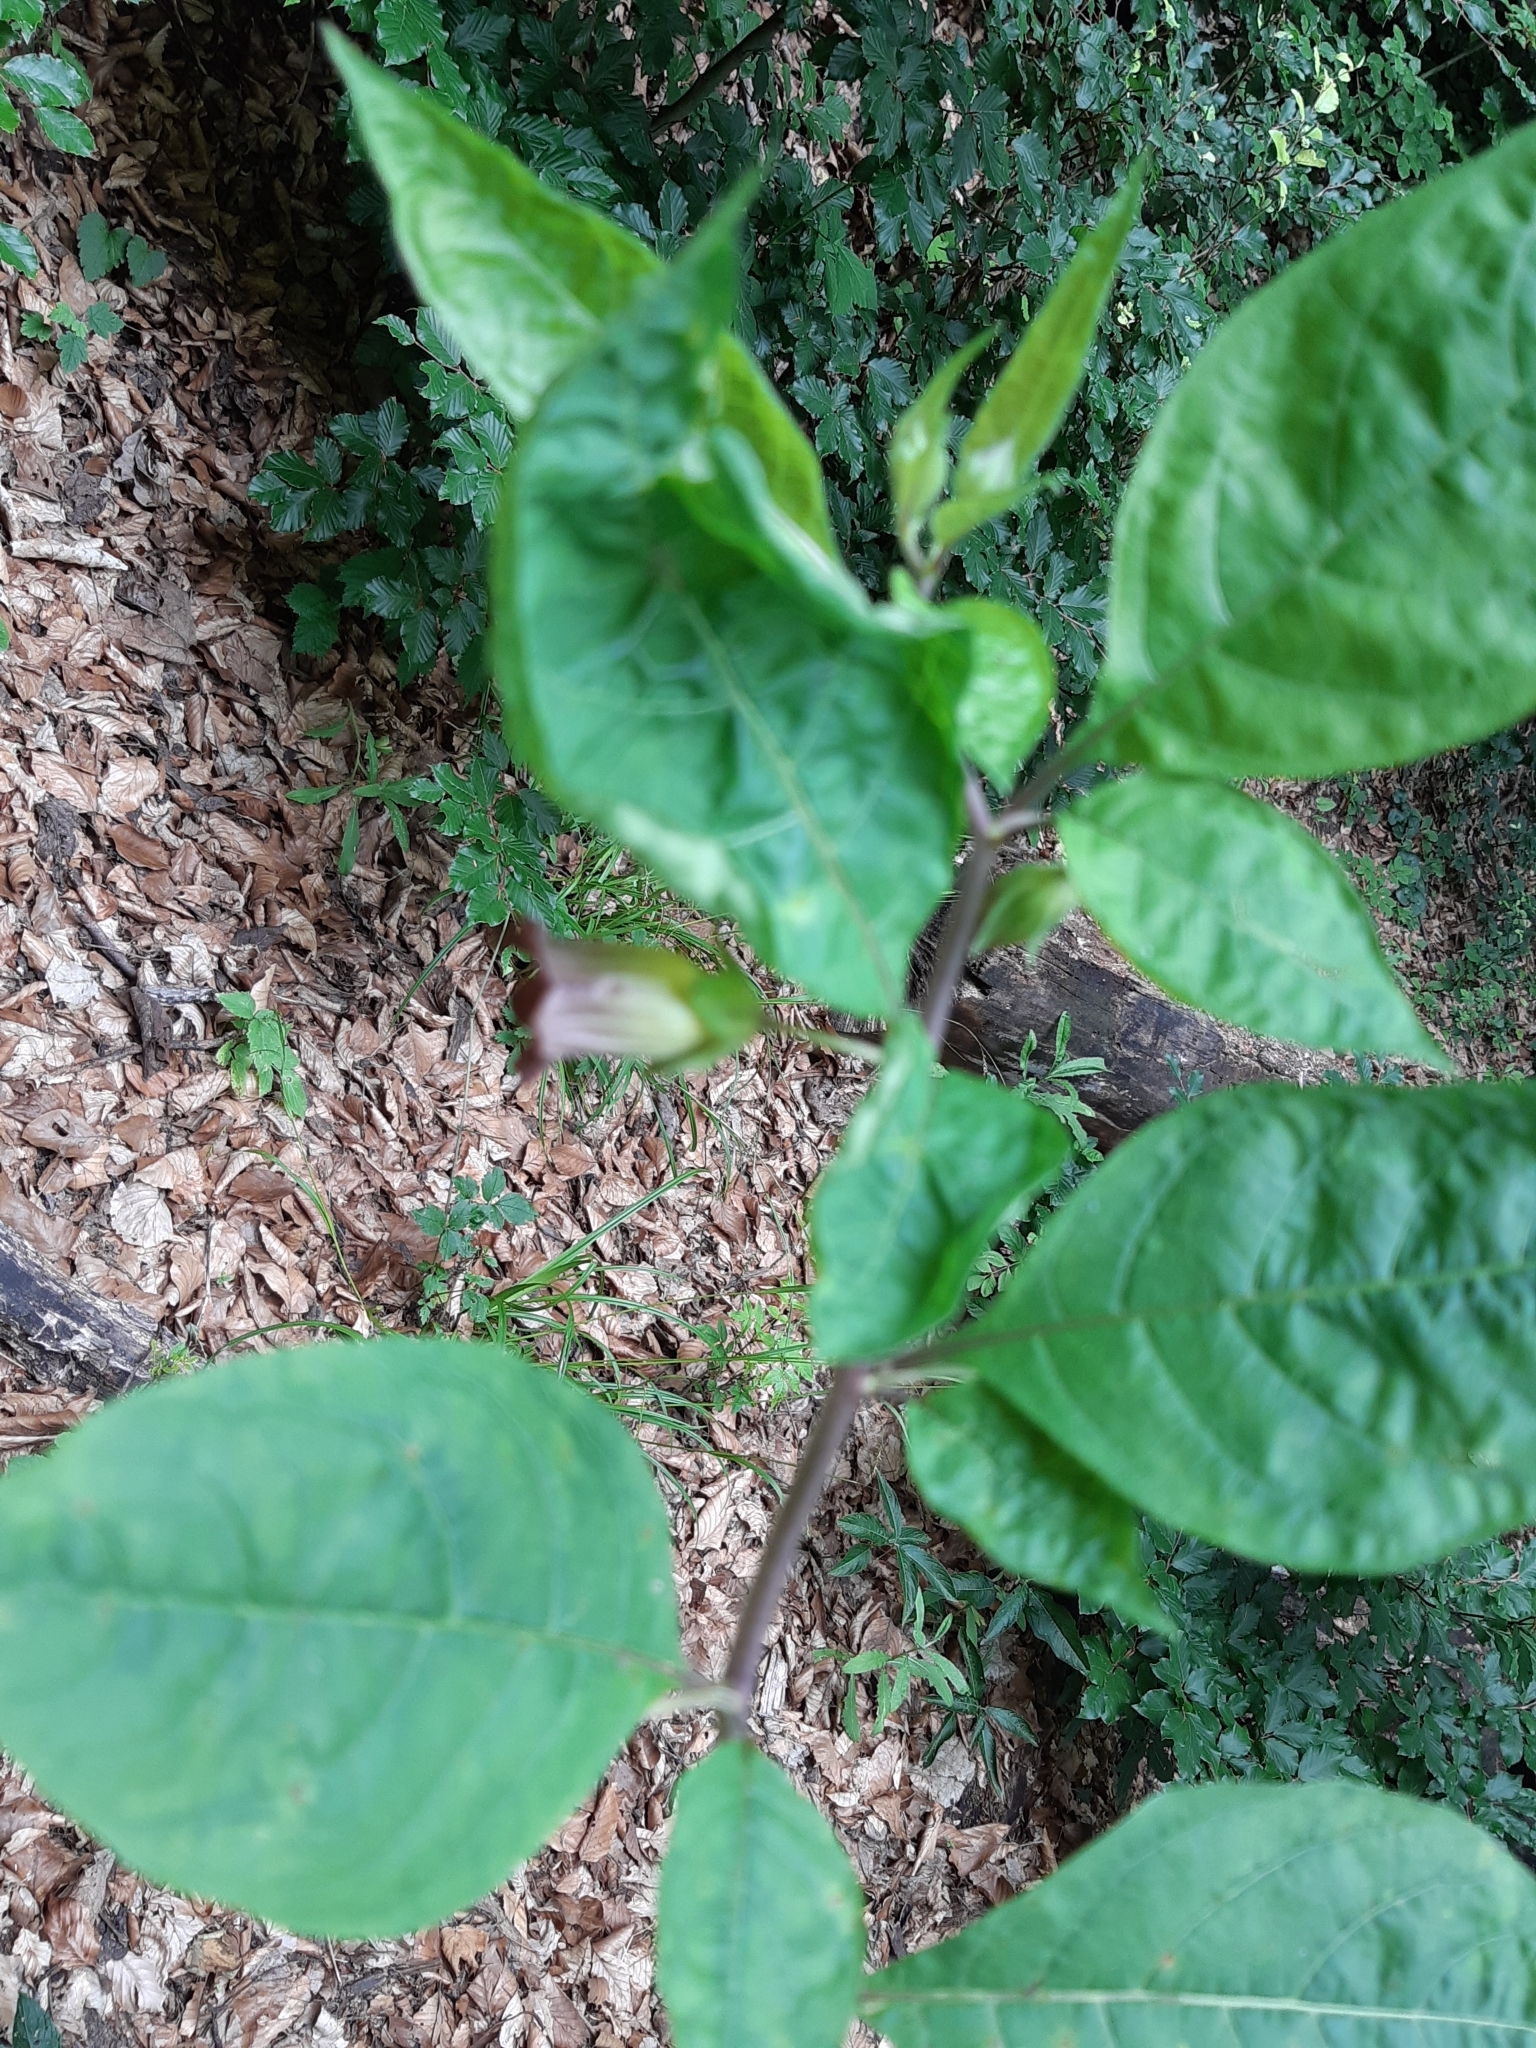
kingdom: Plantae
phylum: Tracheophyta
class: Magnoliopsida
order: Solanales
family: Solanaceae
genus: Atropa
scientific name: Atropa belladonna
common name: Deadly nightshade
